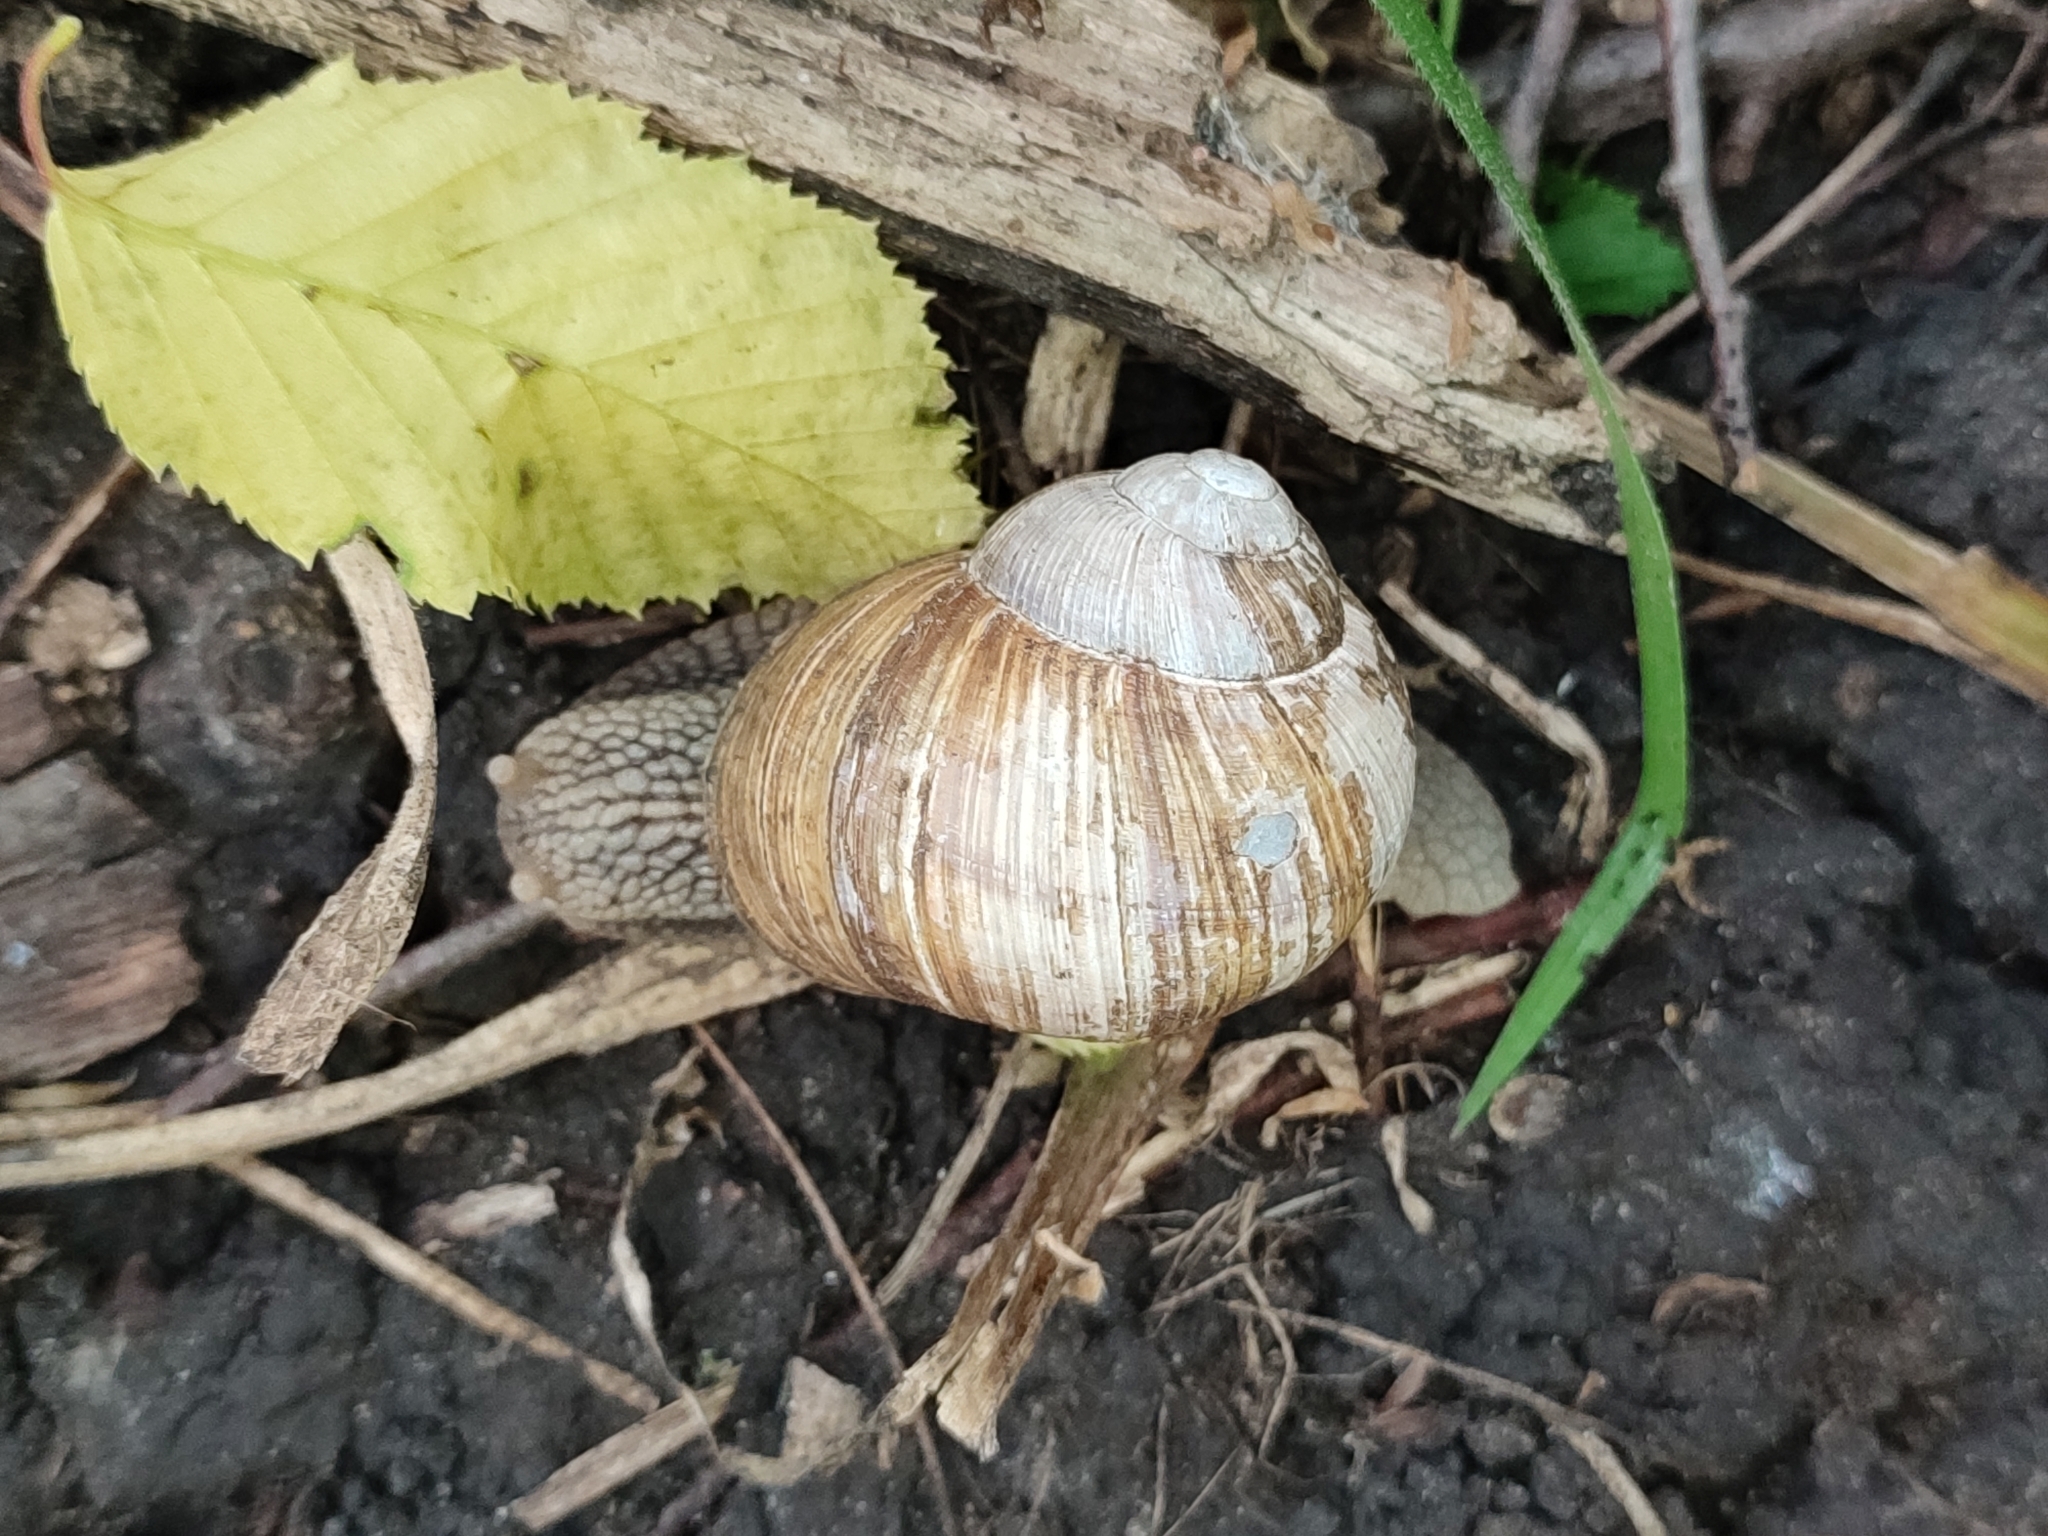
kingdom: Animalia
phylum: Mollusca
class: Gastropoda
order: Stylommatophora
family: Helicidae
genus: Helix
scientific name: Helix pomatia
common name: Roman snail
